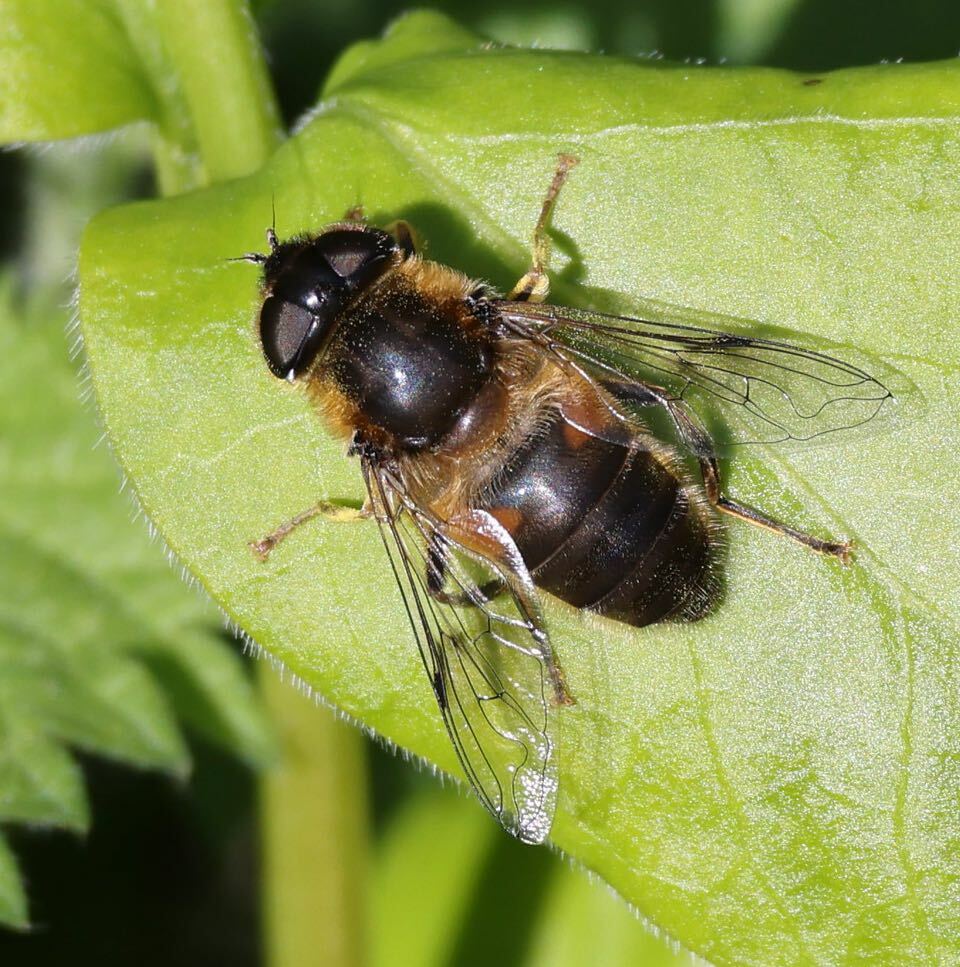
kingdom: Animalia
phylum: Arthropoda
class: Insecta
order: Diptera
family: Syrphidae
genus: Eristalis
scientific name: Eristalis pertinax
